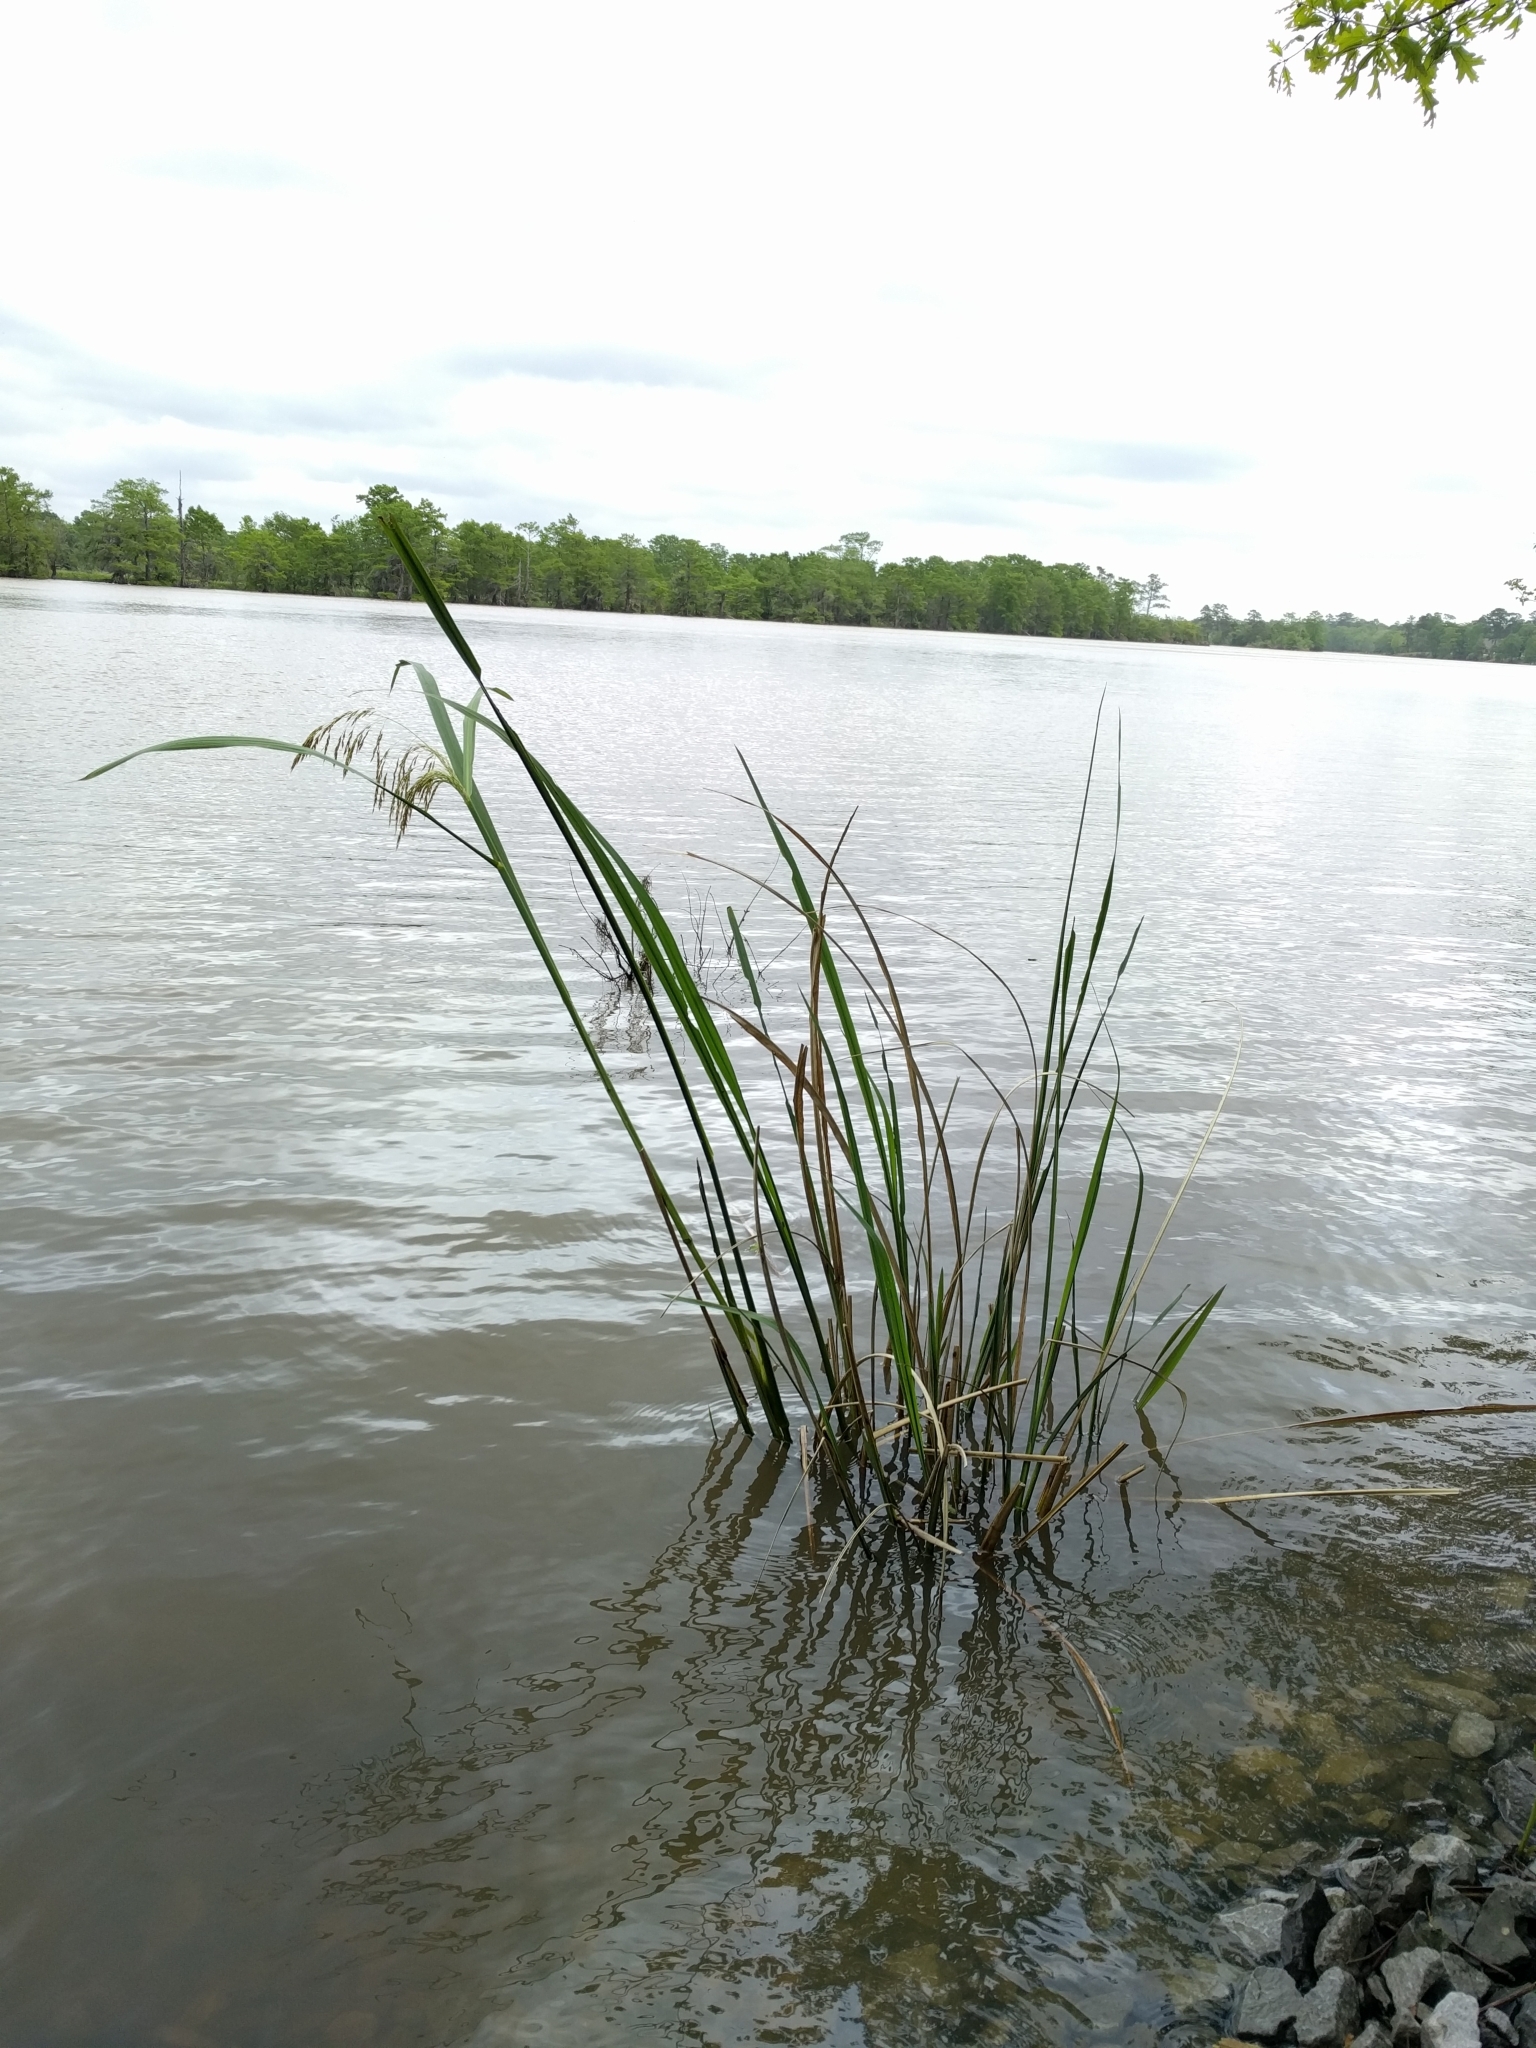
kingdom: Plantae
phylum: Tracheophyta
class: Liliopsida
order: Poales
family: Poaceae
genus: Zizaniopsis
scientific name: Zizaniopsis miliacea
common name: Giant-cutgrass
